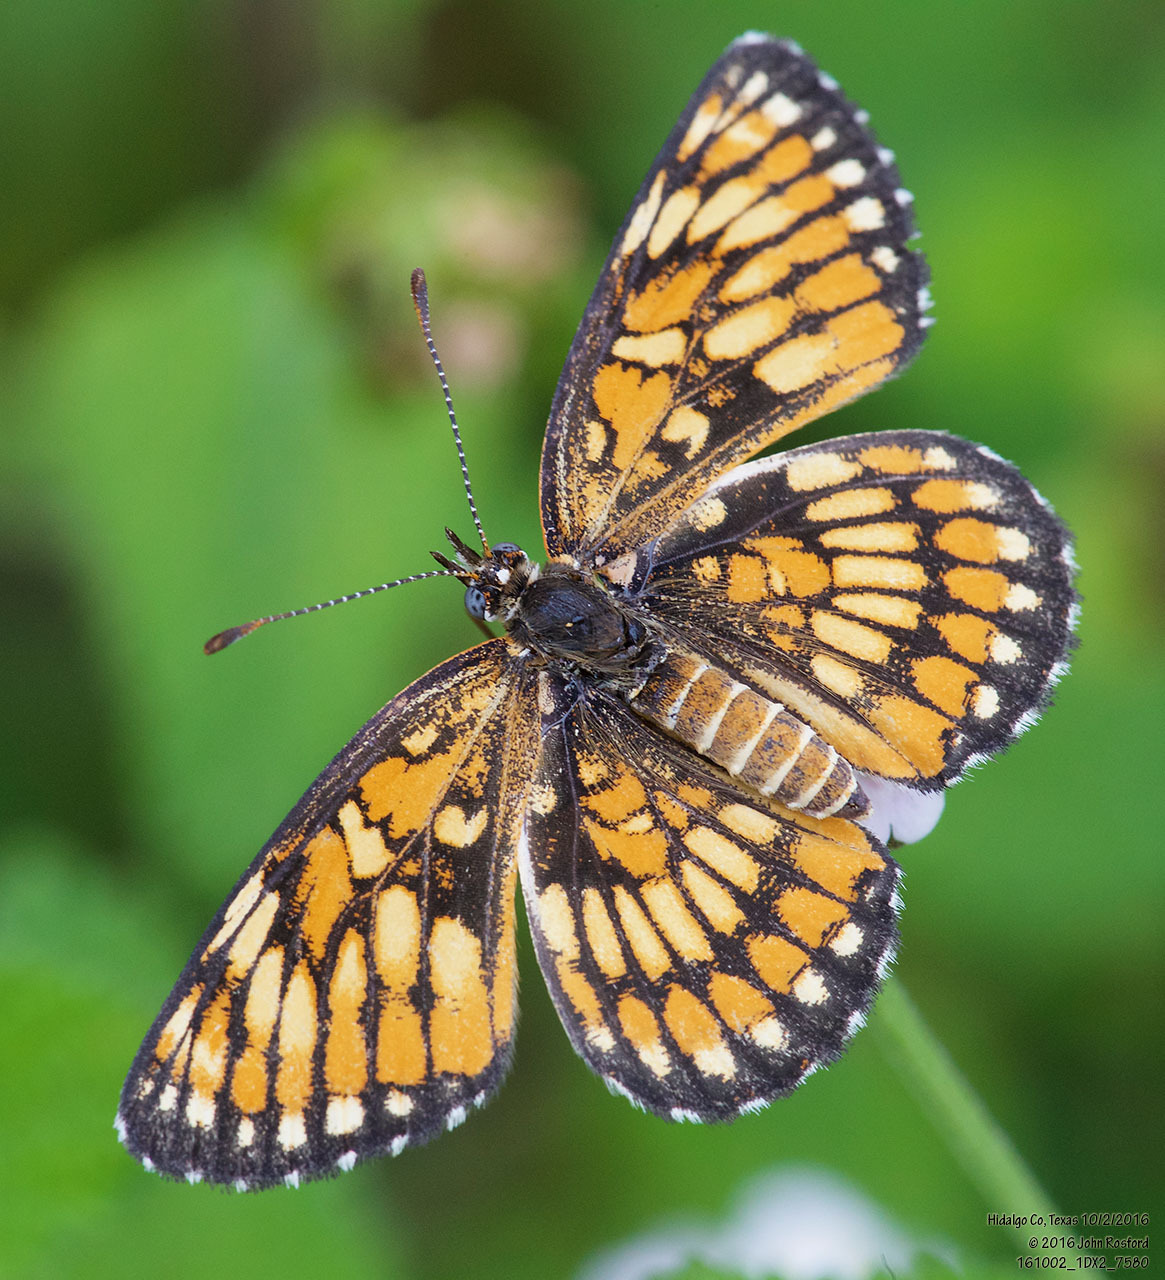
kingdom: Animalia
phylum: Arthropoda
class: Insecta
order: Lepidoptera
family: Nymphalidae
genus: Thessalia
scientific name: Thessalia theona
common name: Nymphalid moth
